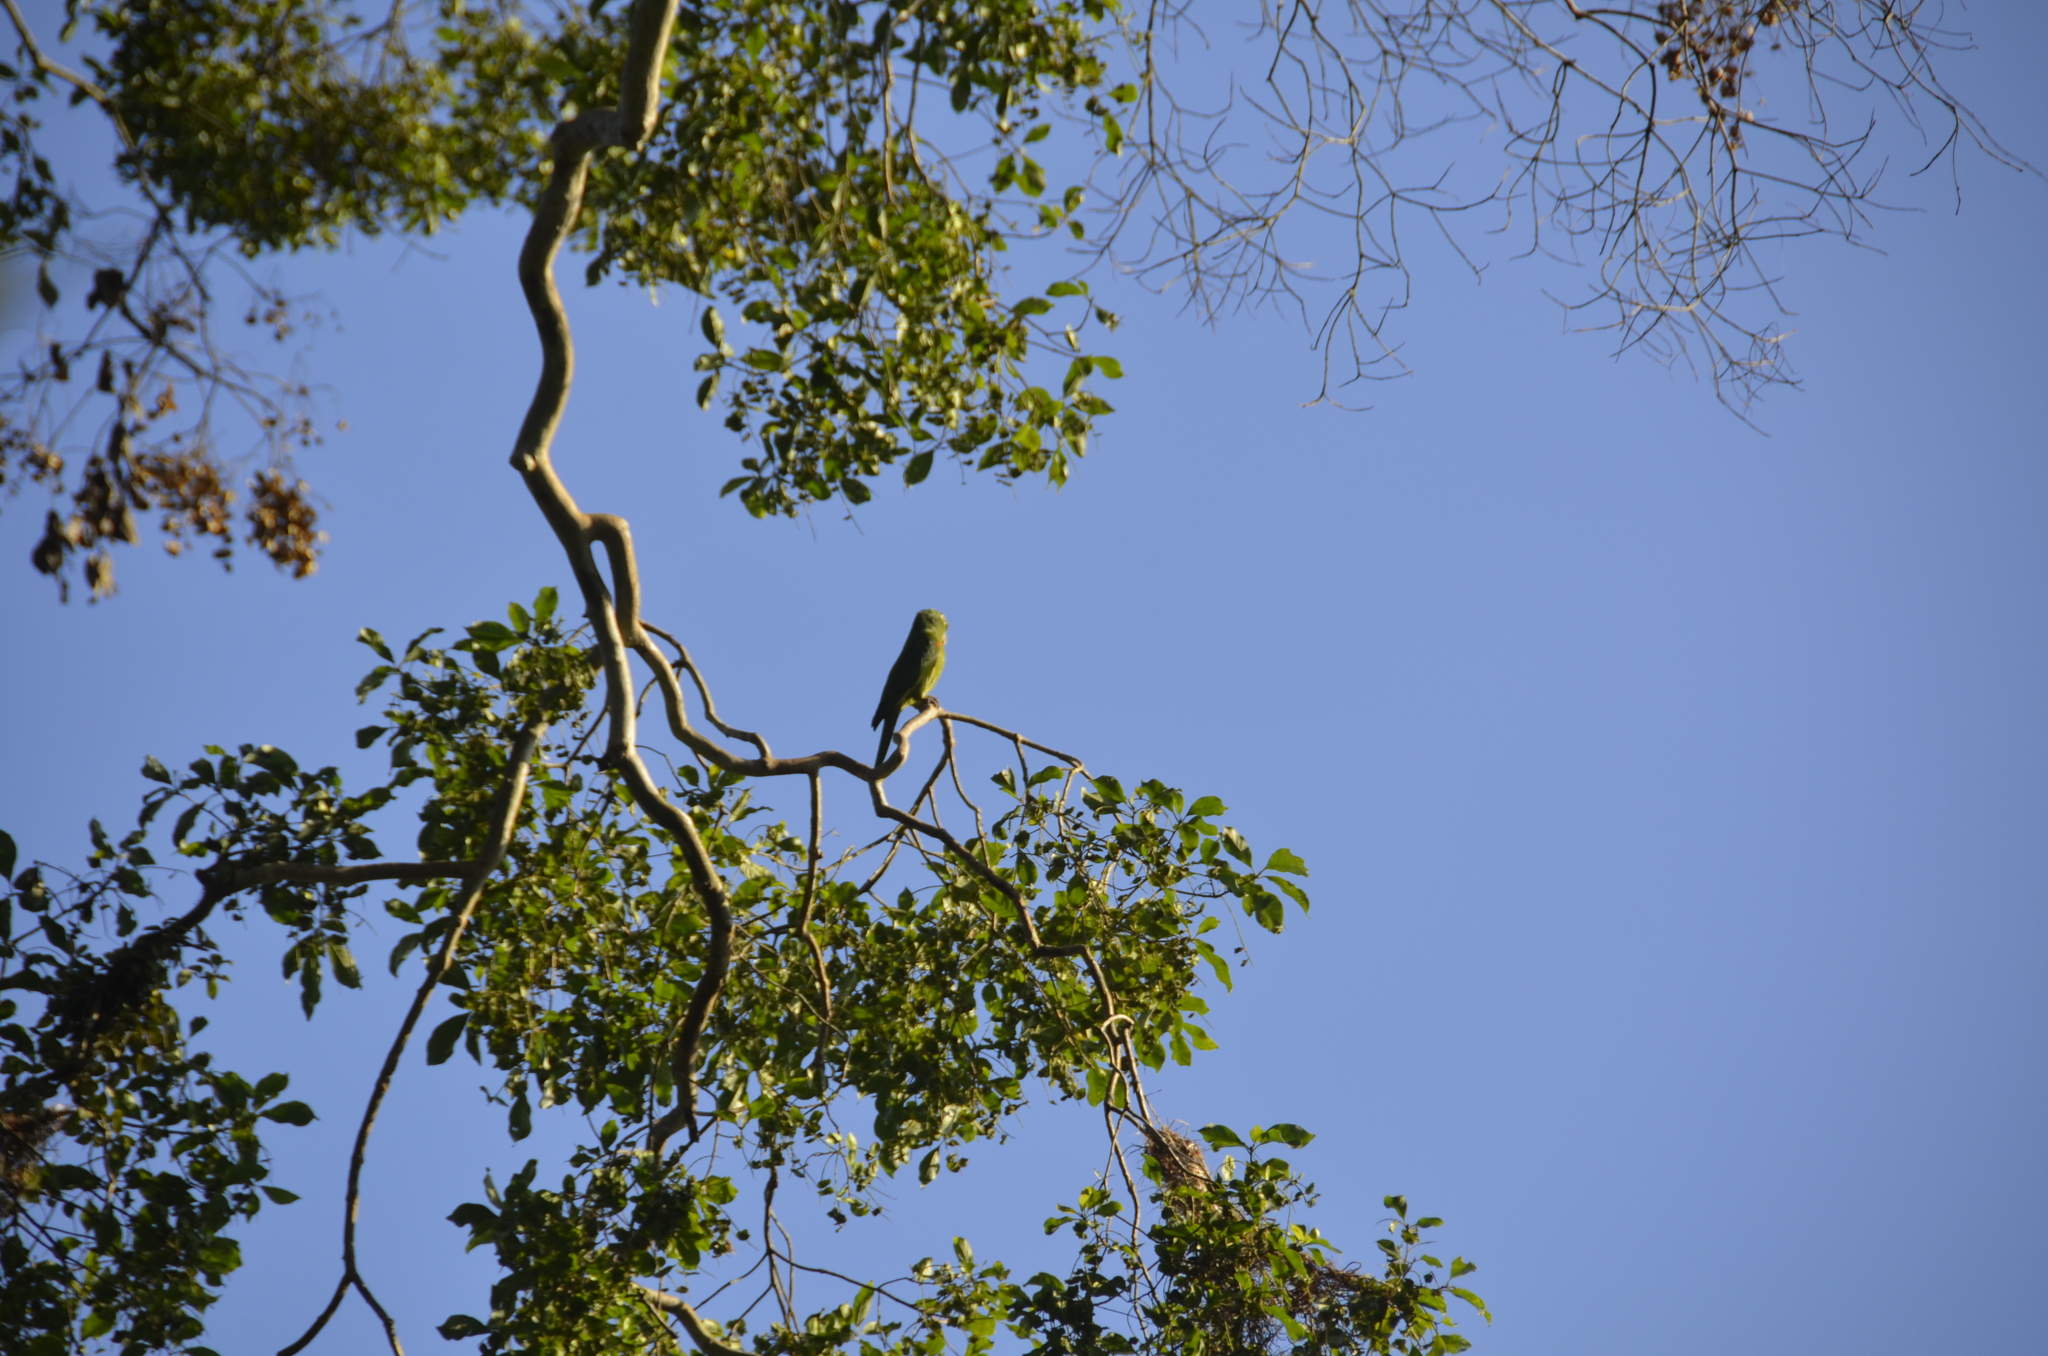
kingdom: Animalia
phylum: Chordata
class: Aves
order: Psittaciformes
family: Psittacidae
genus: Aratinga
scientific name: Aratinga finschi
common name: Crimson-fronted parakeet
